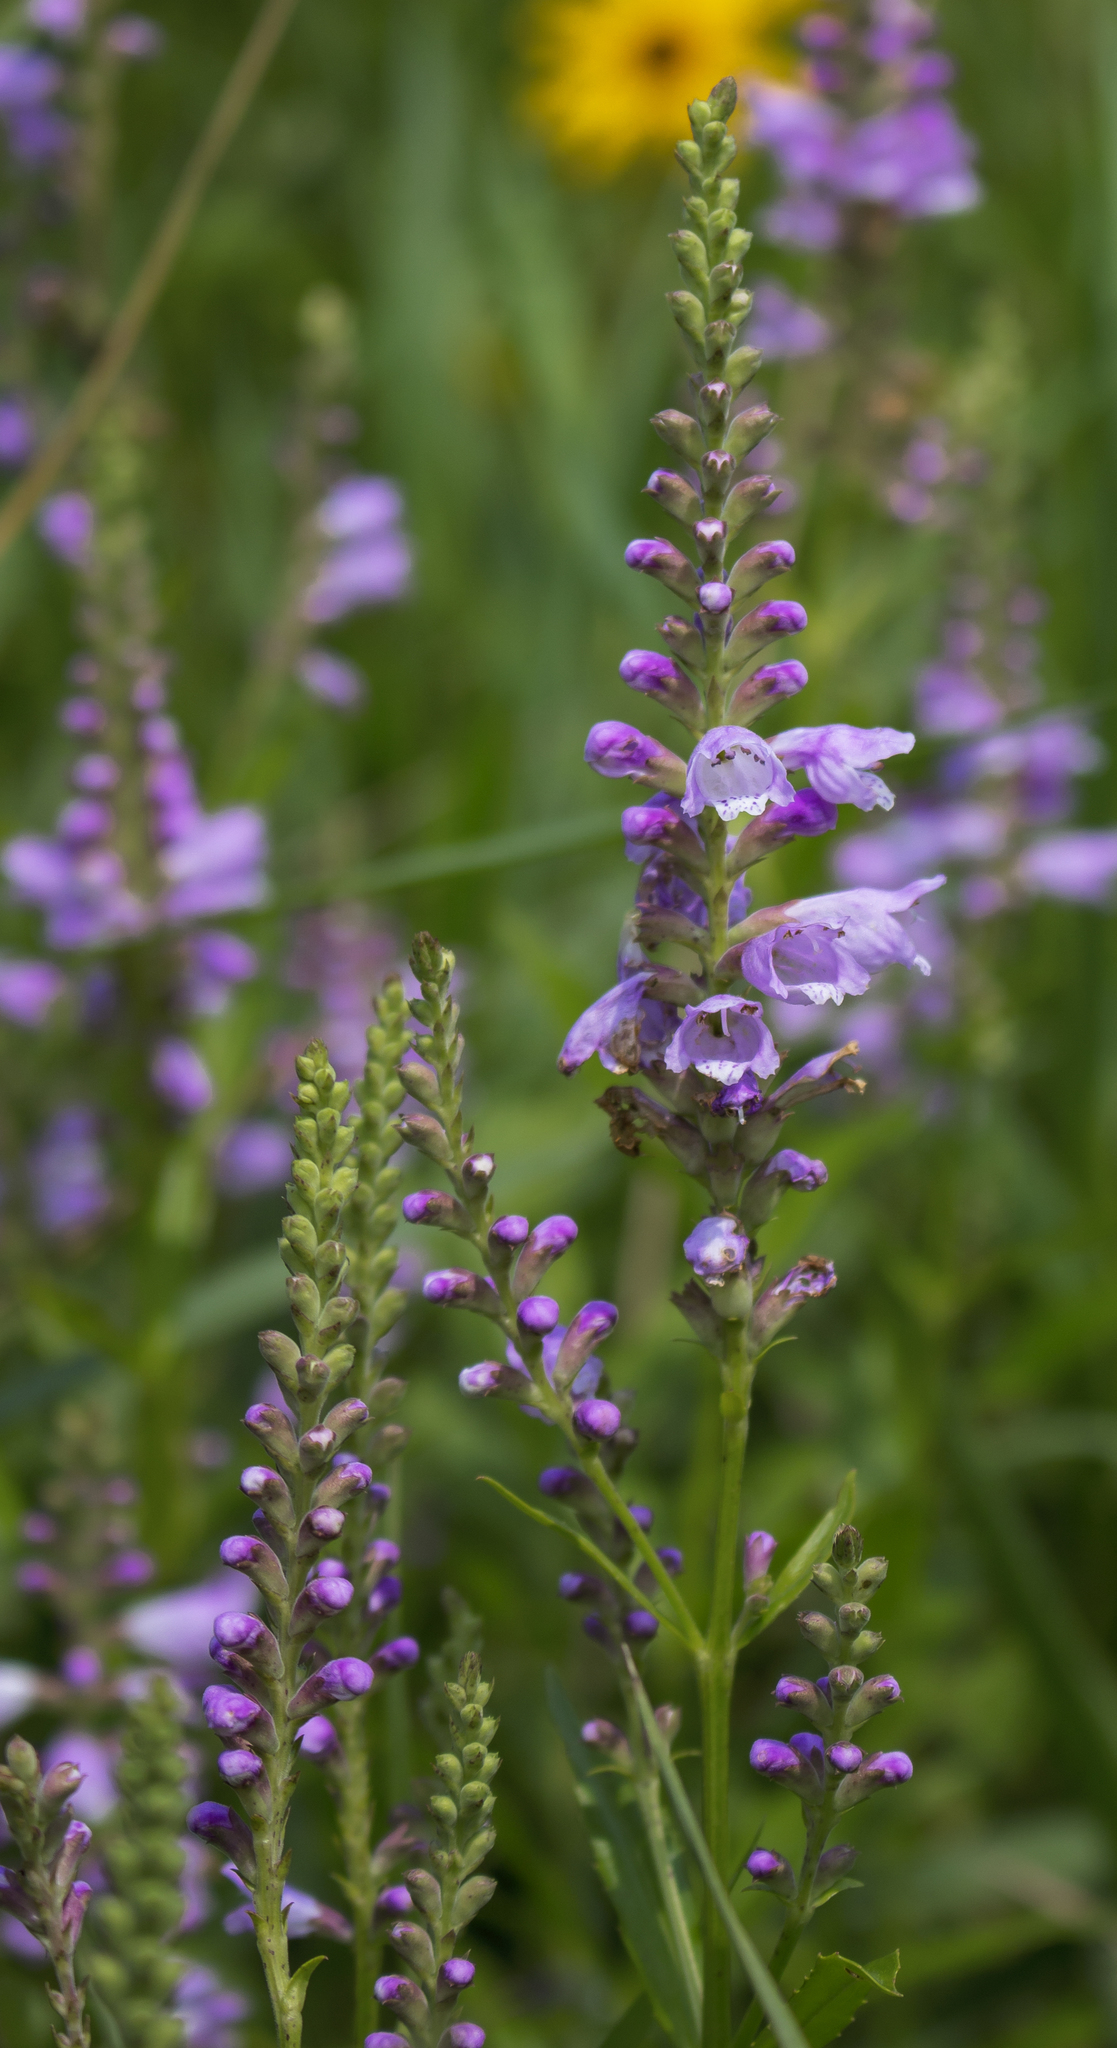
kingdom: Plantae
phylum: Tracheophyta
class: Magnoliopsida
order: Lamiales
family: Lamiaceae
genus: Physostegia
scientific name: Physostegia virginiana
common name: Obedient-plant
